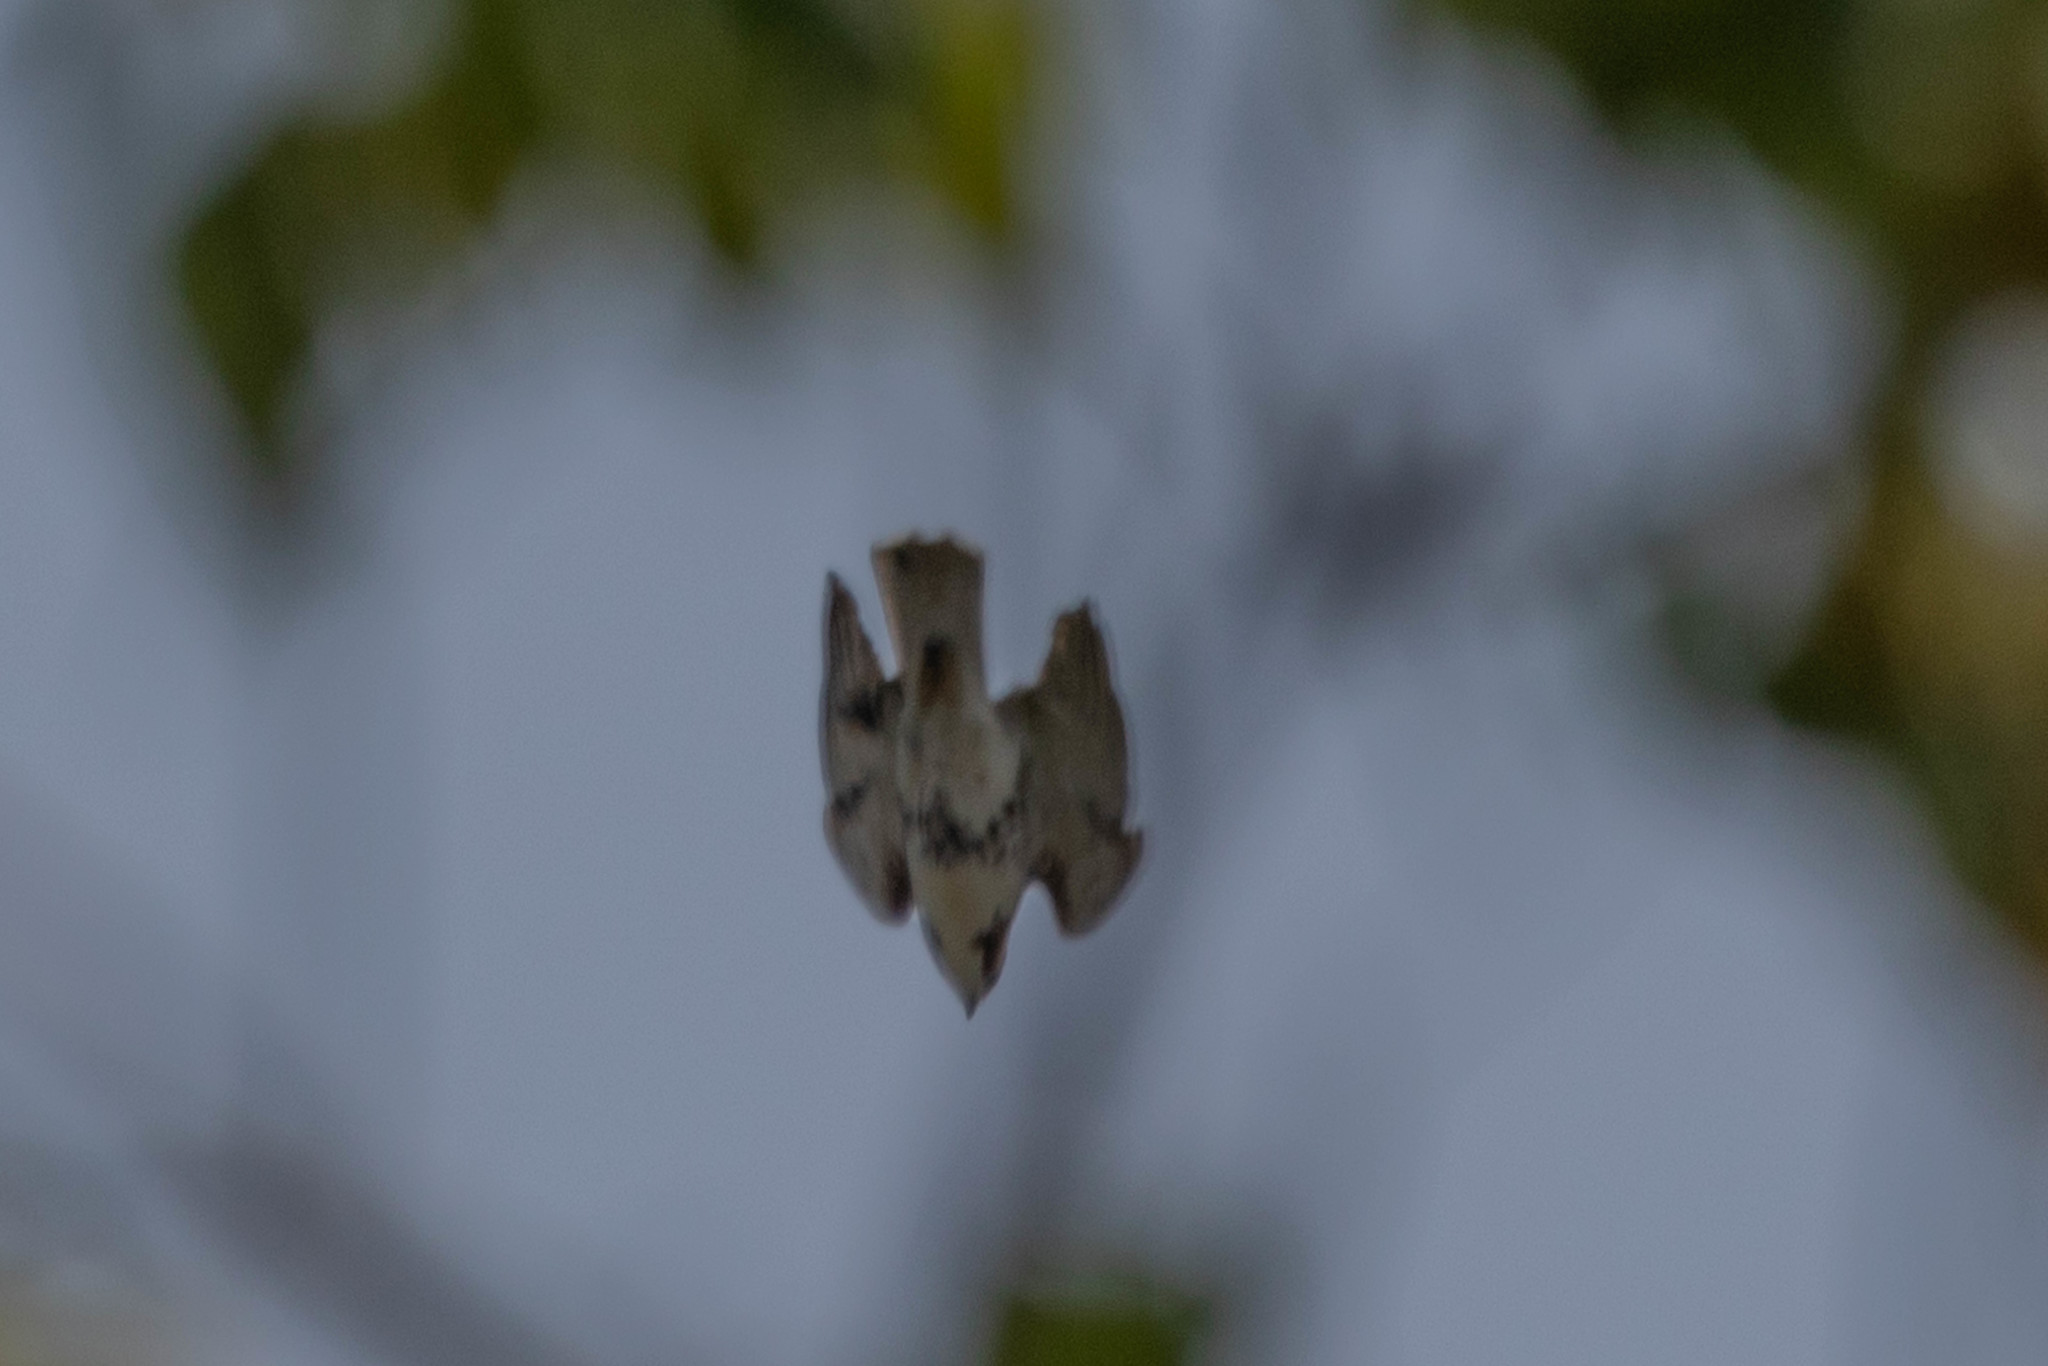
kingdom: Animalia
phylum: Chordata
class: Aves
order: Accipitriformes
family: Accipitridae
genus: Buteo
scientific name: Buteo jamaicensis
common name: Red-tailed hawk
